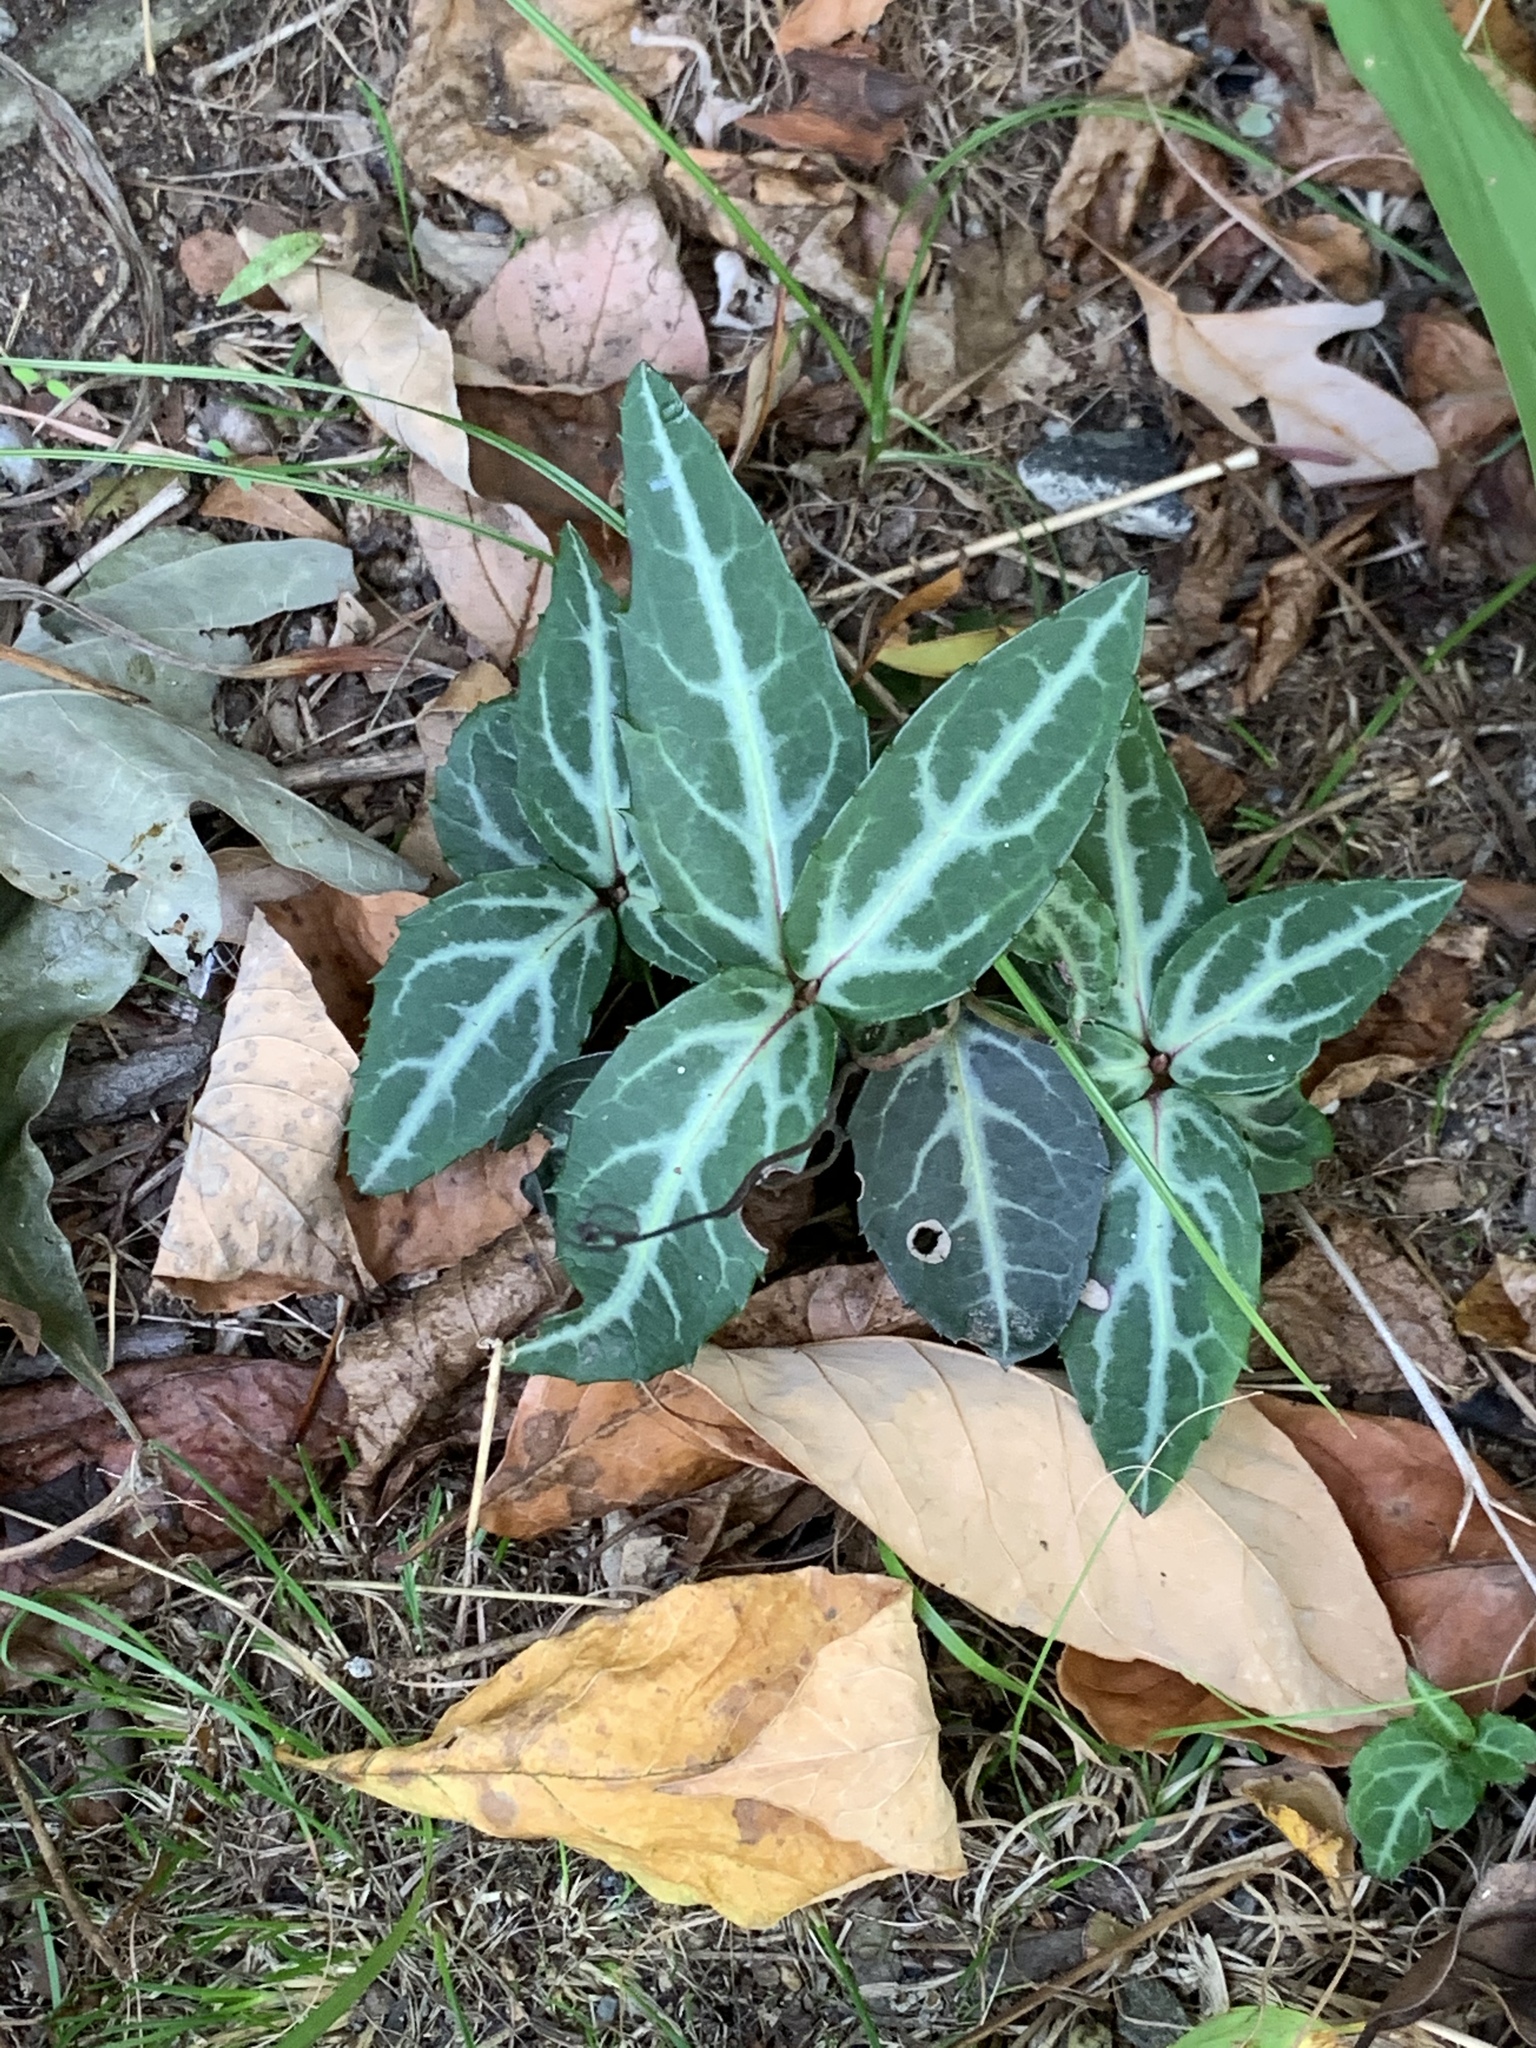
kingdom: Plantae
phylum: Tracheophyta
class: Magnoliopsida
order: Ericales
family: Ericaceae
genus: Chimaphila
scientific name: Chimaphila maculata
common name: Spotted pipsissewa
